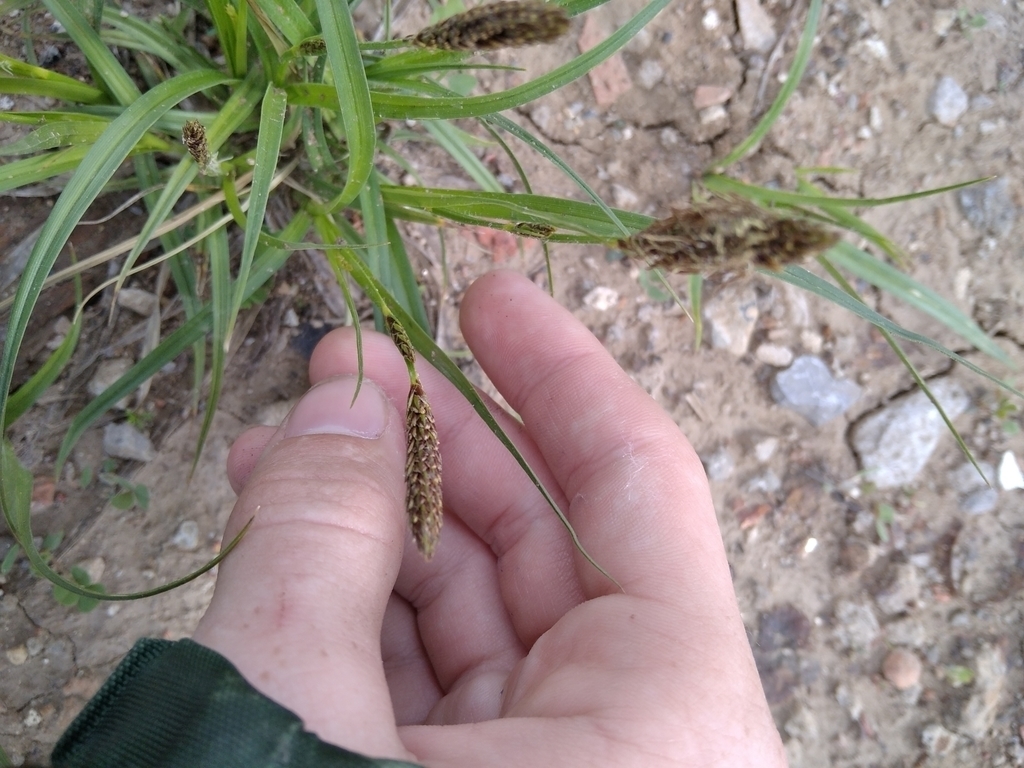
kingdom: Plantae
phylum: Tracheophyta
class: Liliopsida
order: Poales
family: Cyperaceae
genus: Carex
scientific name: Carex hirta
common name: Hairy sedge
